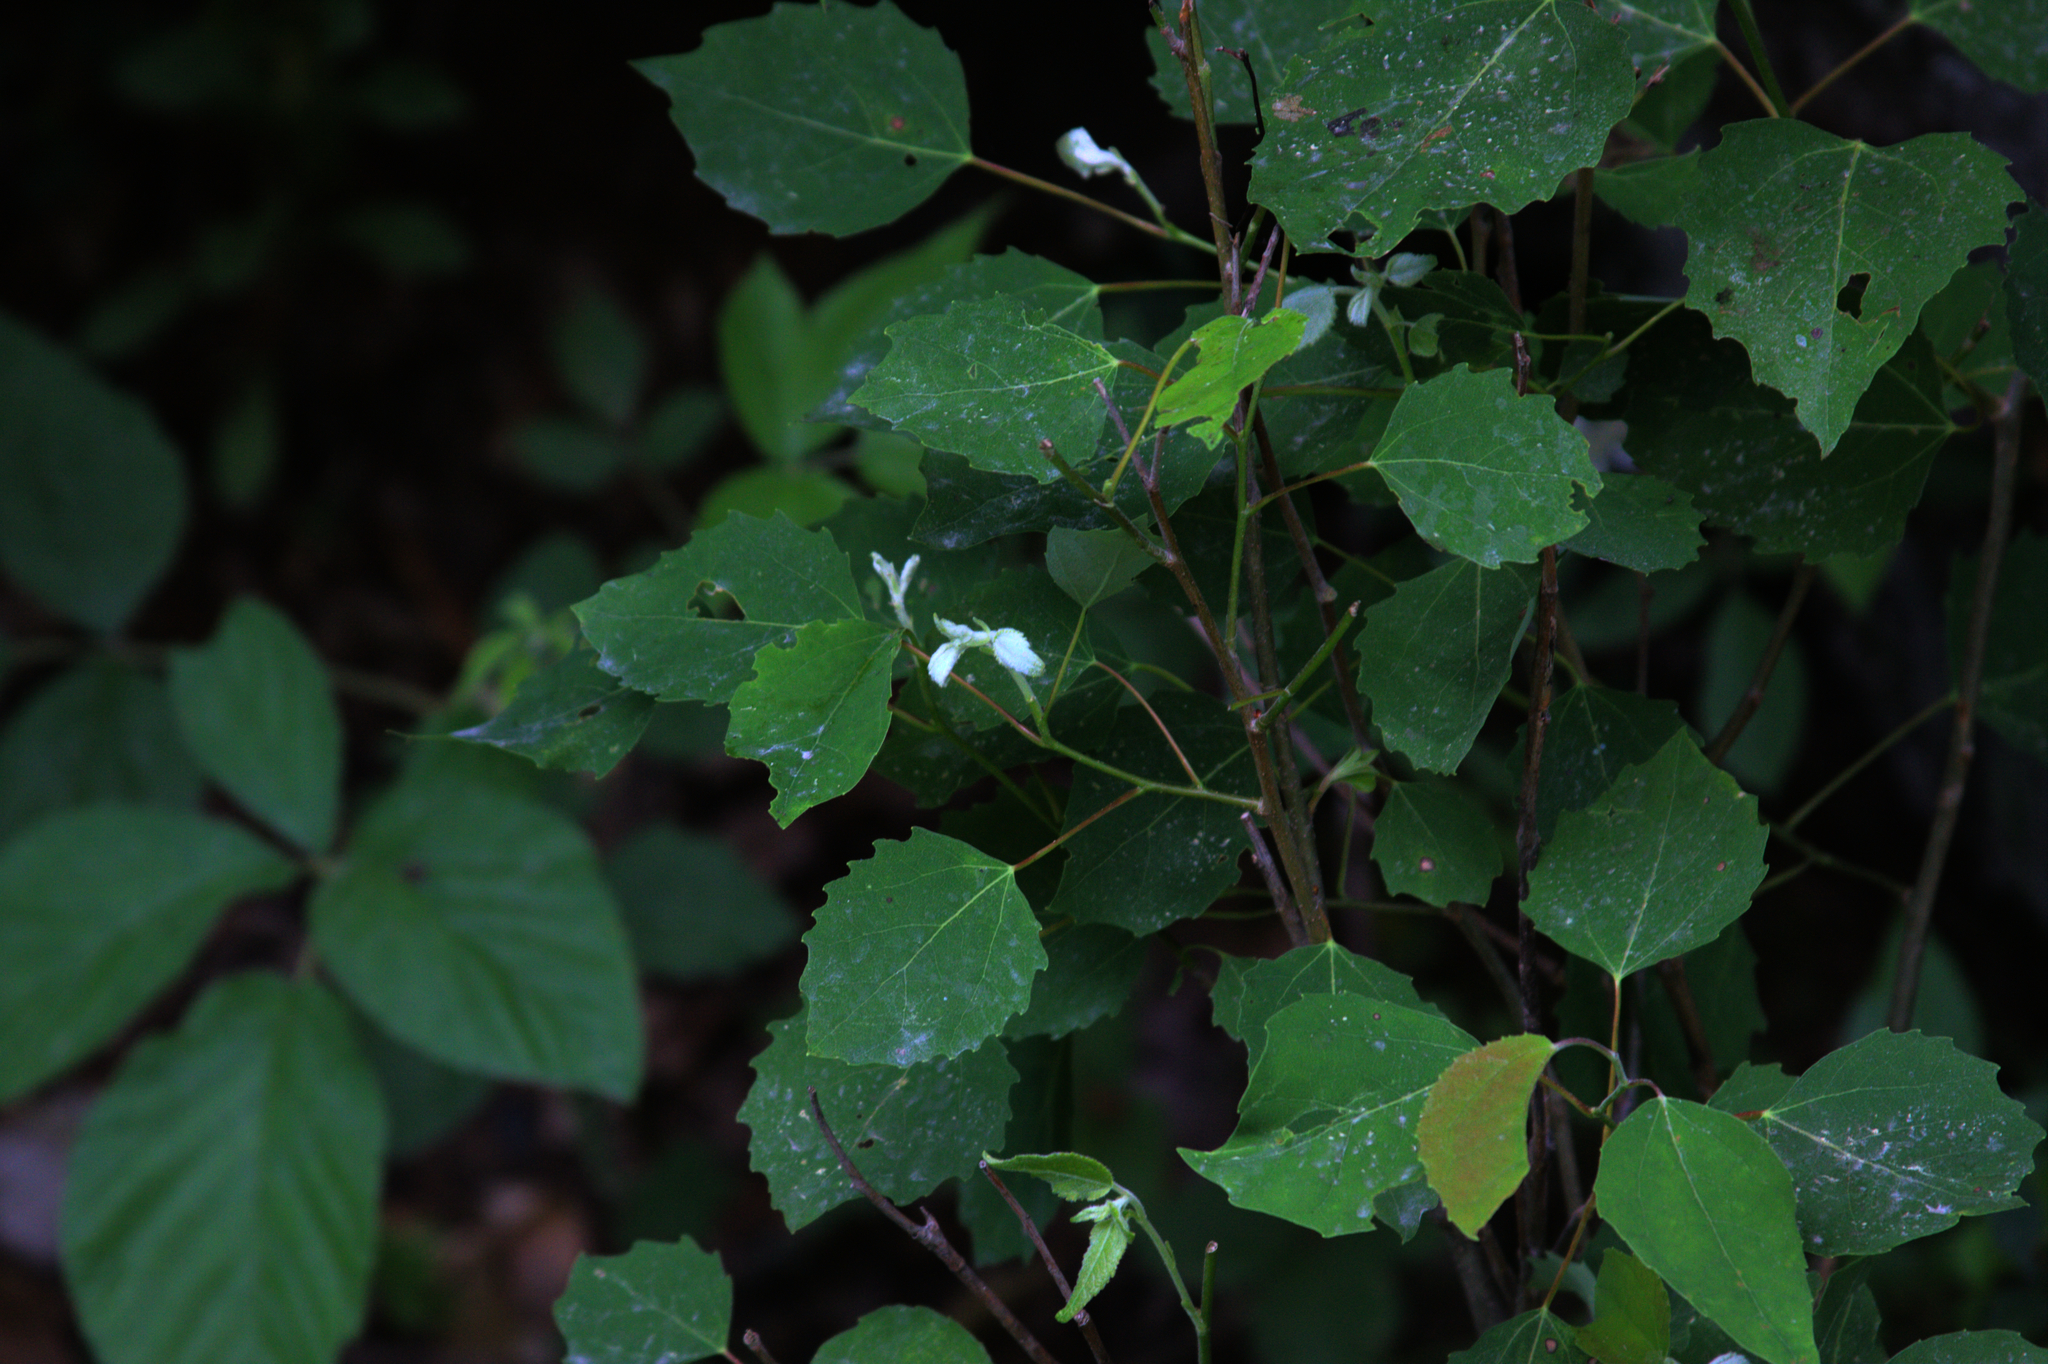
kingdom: Plantae
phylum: Tracheophyta
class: Magnoliopsida
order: Malpighiales
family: Salicaceae
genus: Populus
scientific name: Populus grandidentata
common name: Bigtooth aspen
